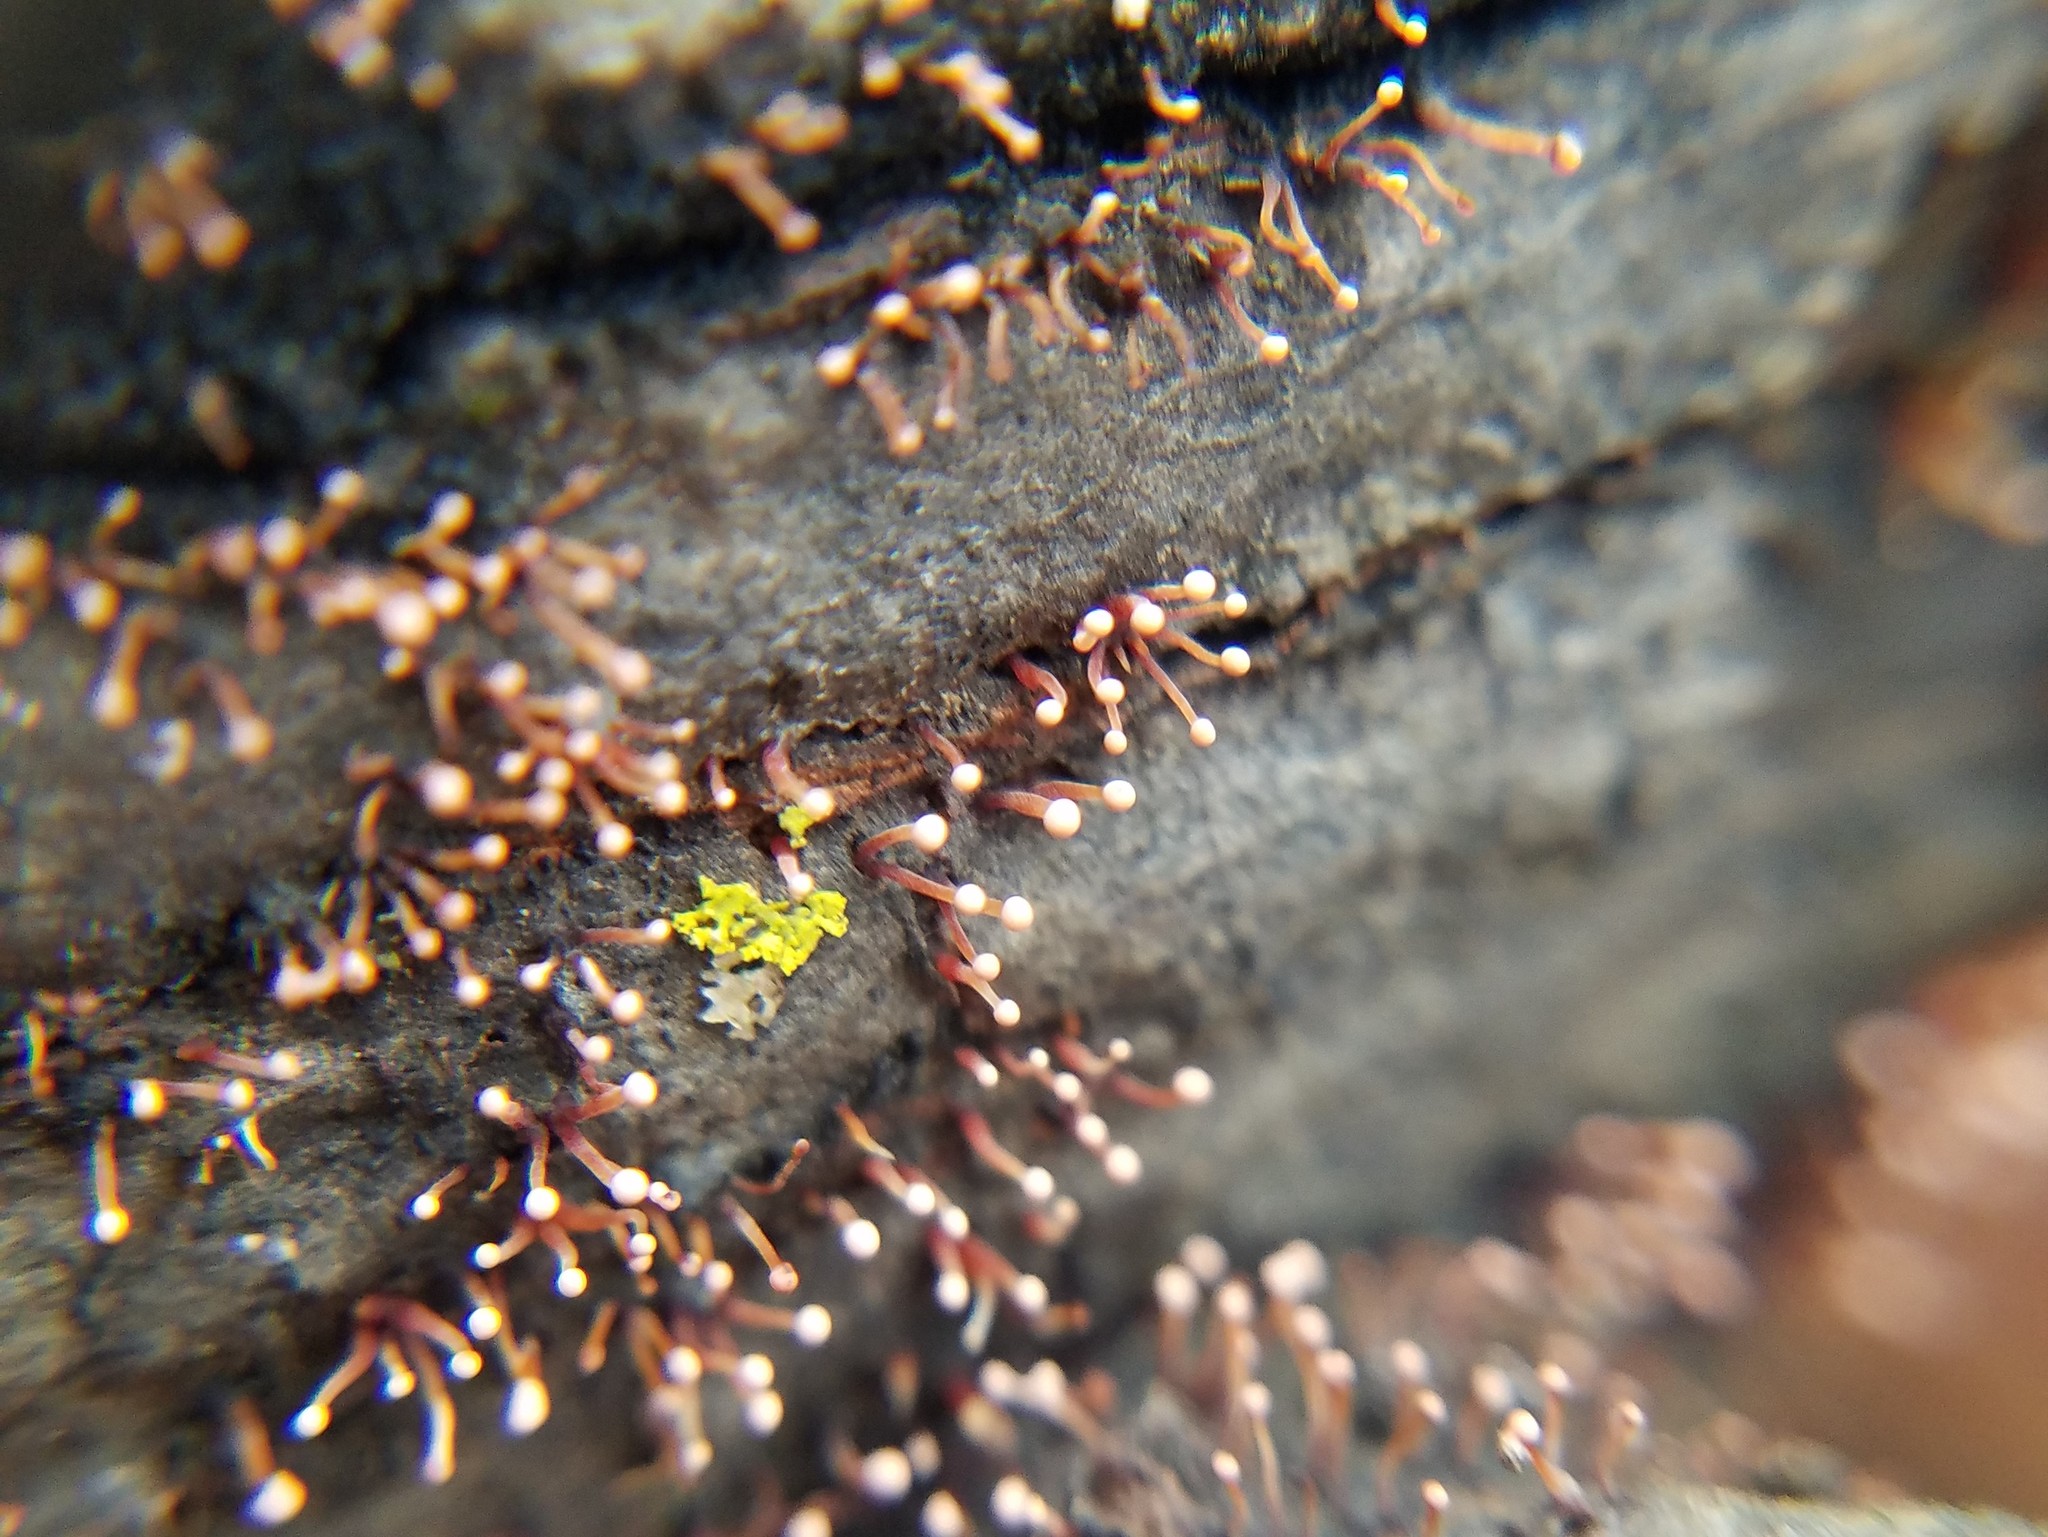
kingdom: Fungi
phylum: Ascomycota
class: Sordariomycetes
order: Hypocreales
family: Nectriaceae
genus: Nectria
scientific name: Nectria pseudotrichia
